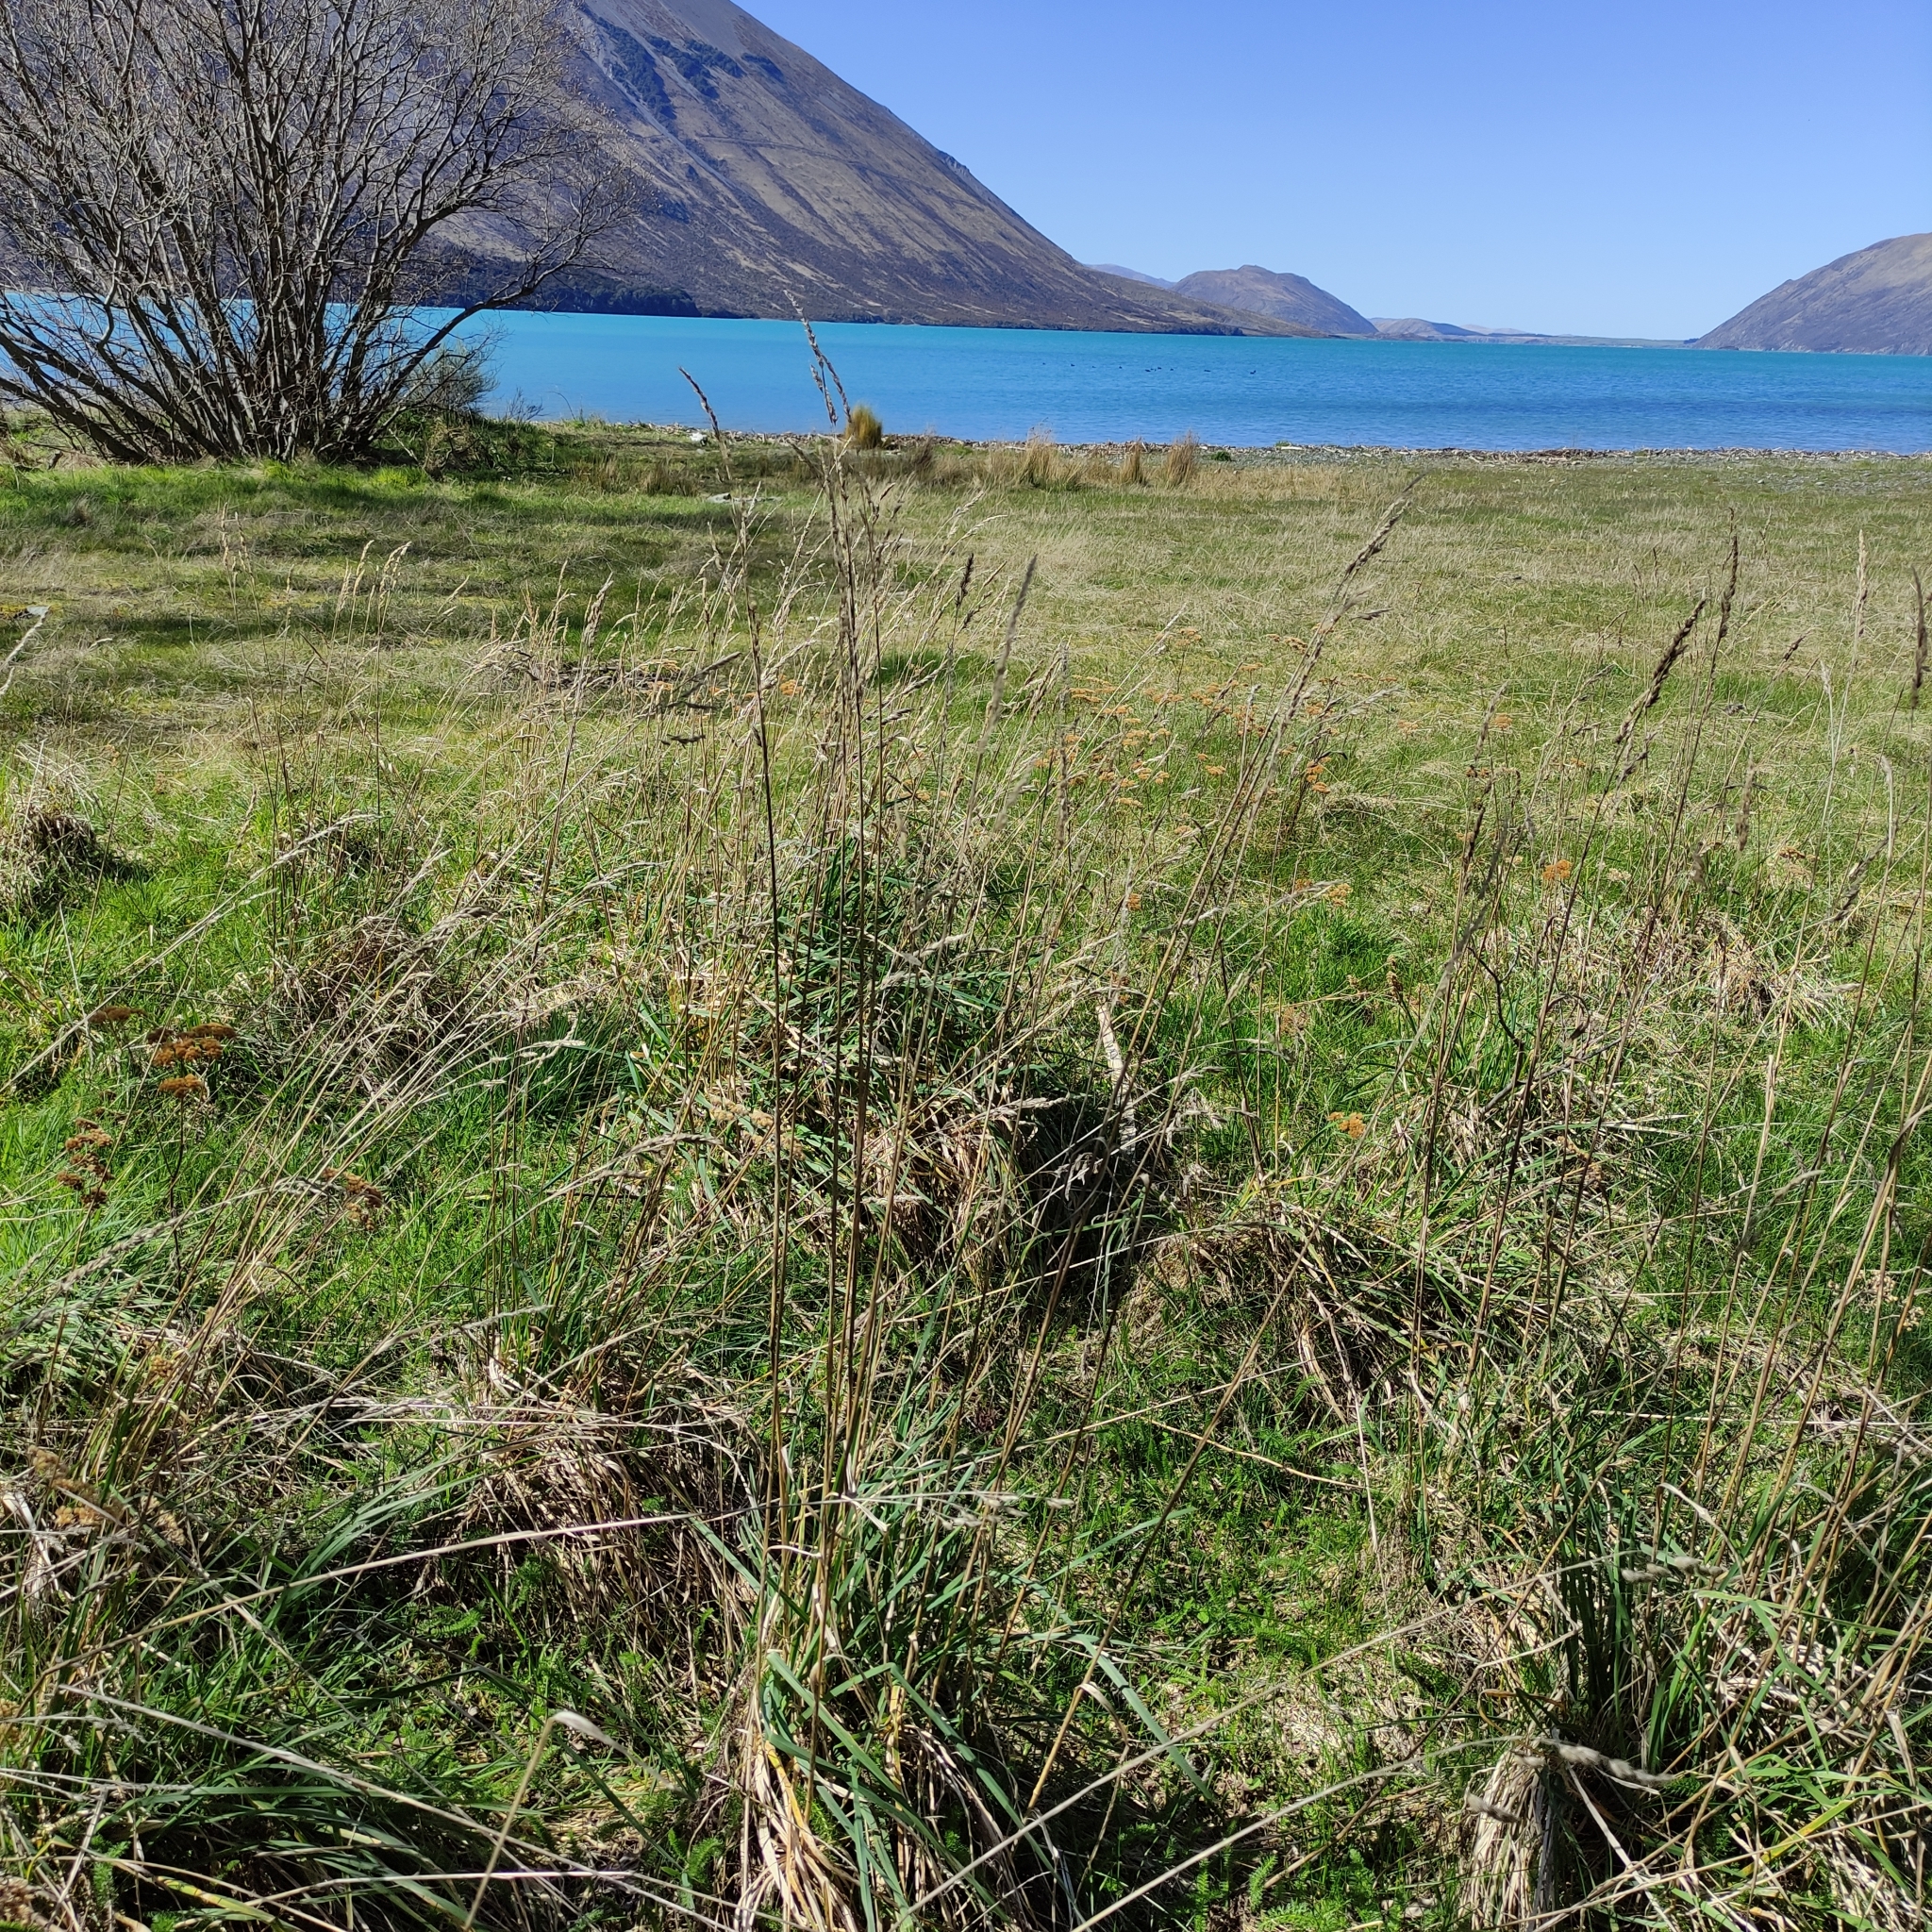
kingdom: Plantae
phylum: Tracheophyta
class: Liliopsida
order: Poales
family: Poaceae
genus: Dactylis
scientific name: Dactylis glomerata
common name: Orchardgrass
